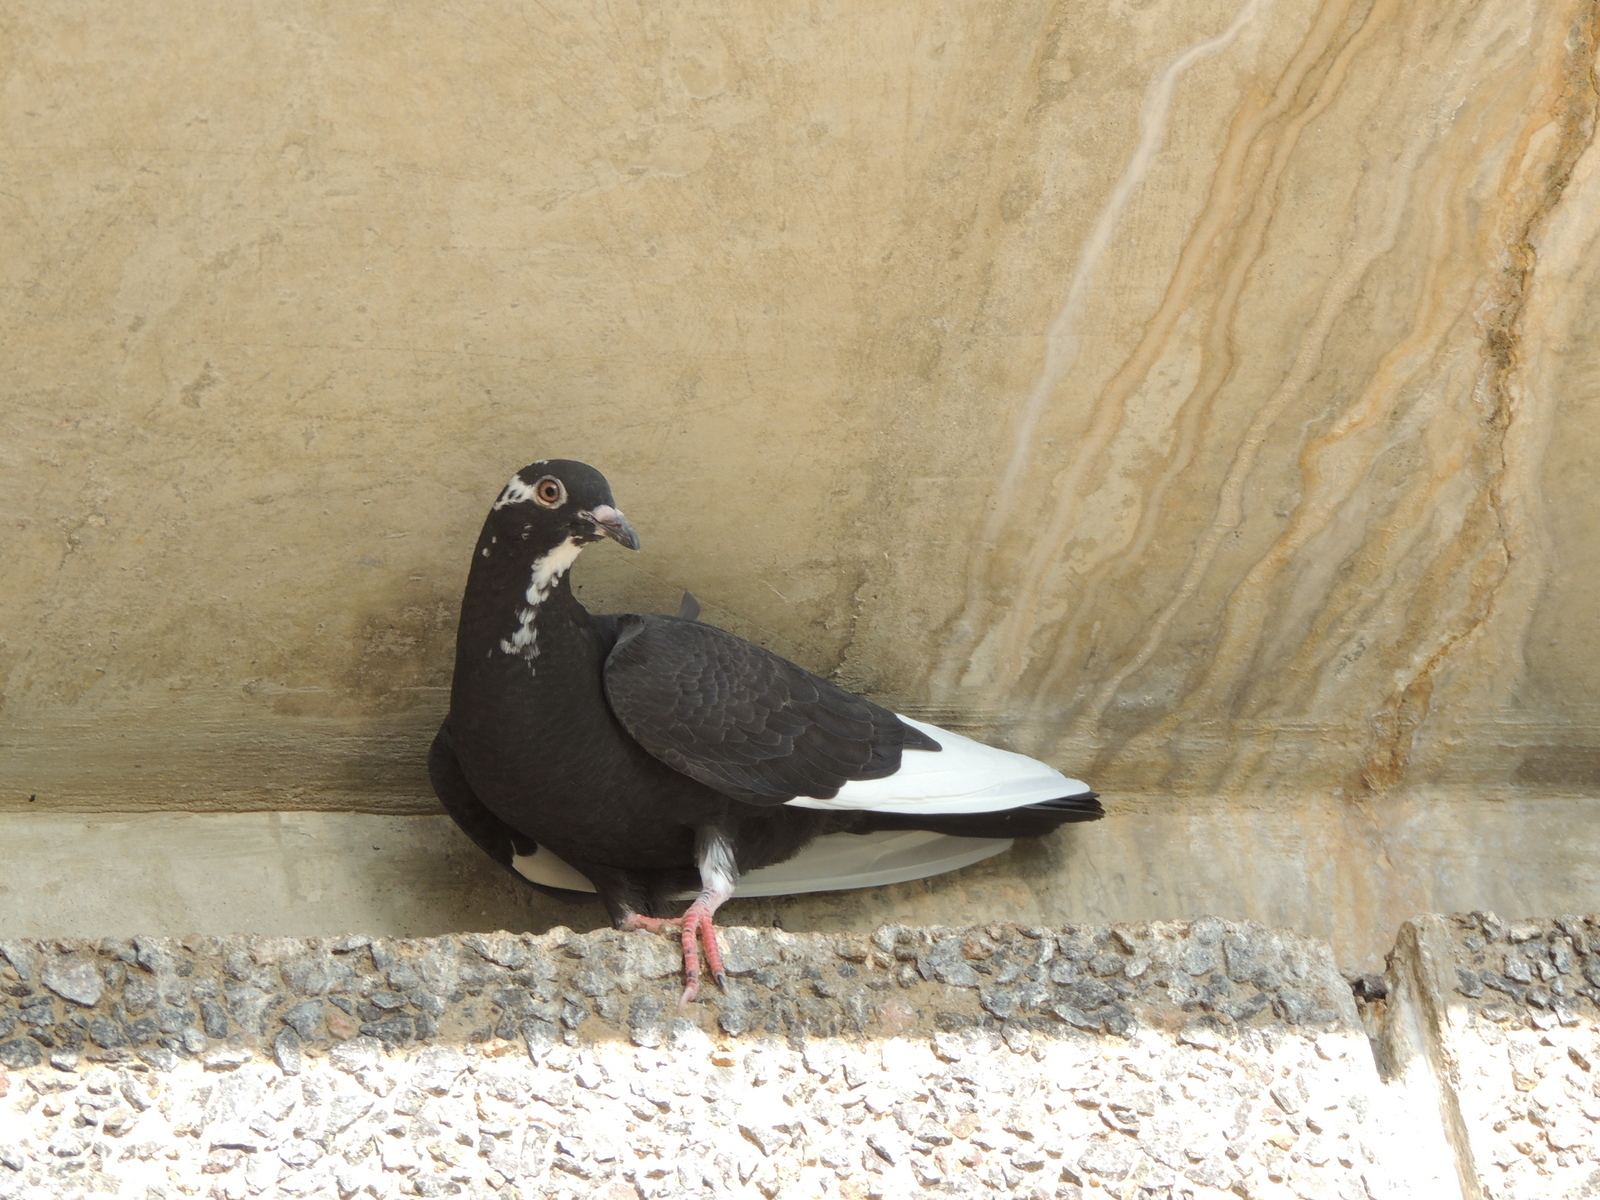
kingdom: Animalia
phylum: Chordata
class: Aves
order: Columbiformes
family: Columbidae
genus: Columba
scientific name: Columba livia
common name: Rock pigeon
